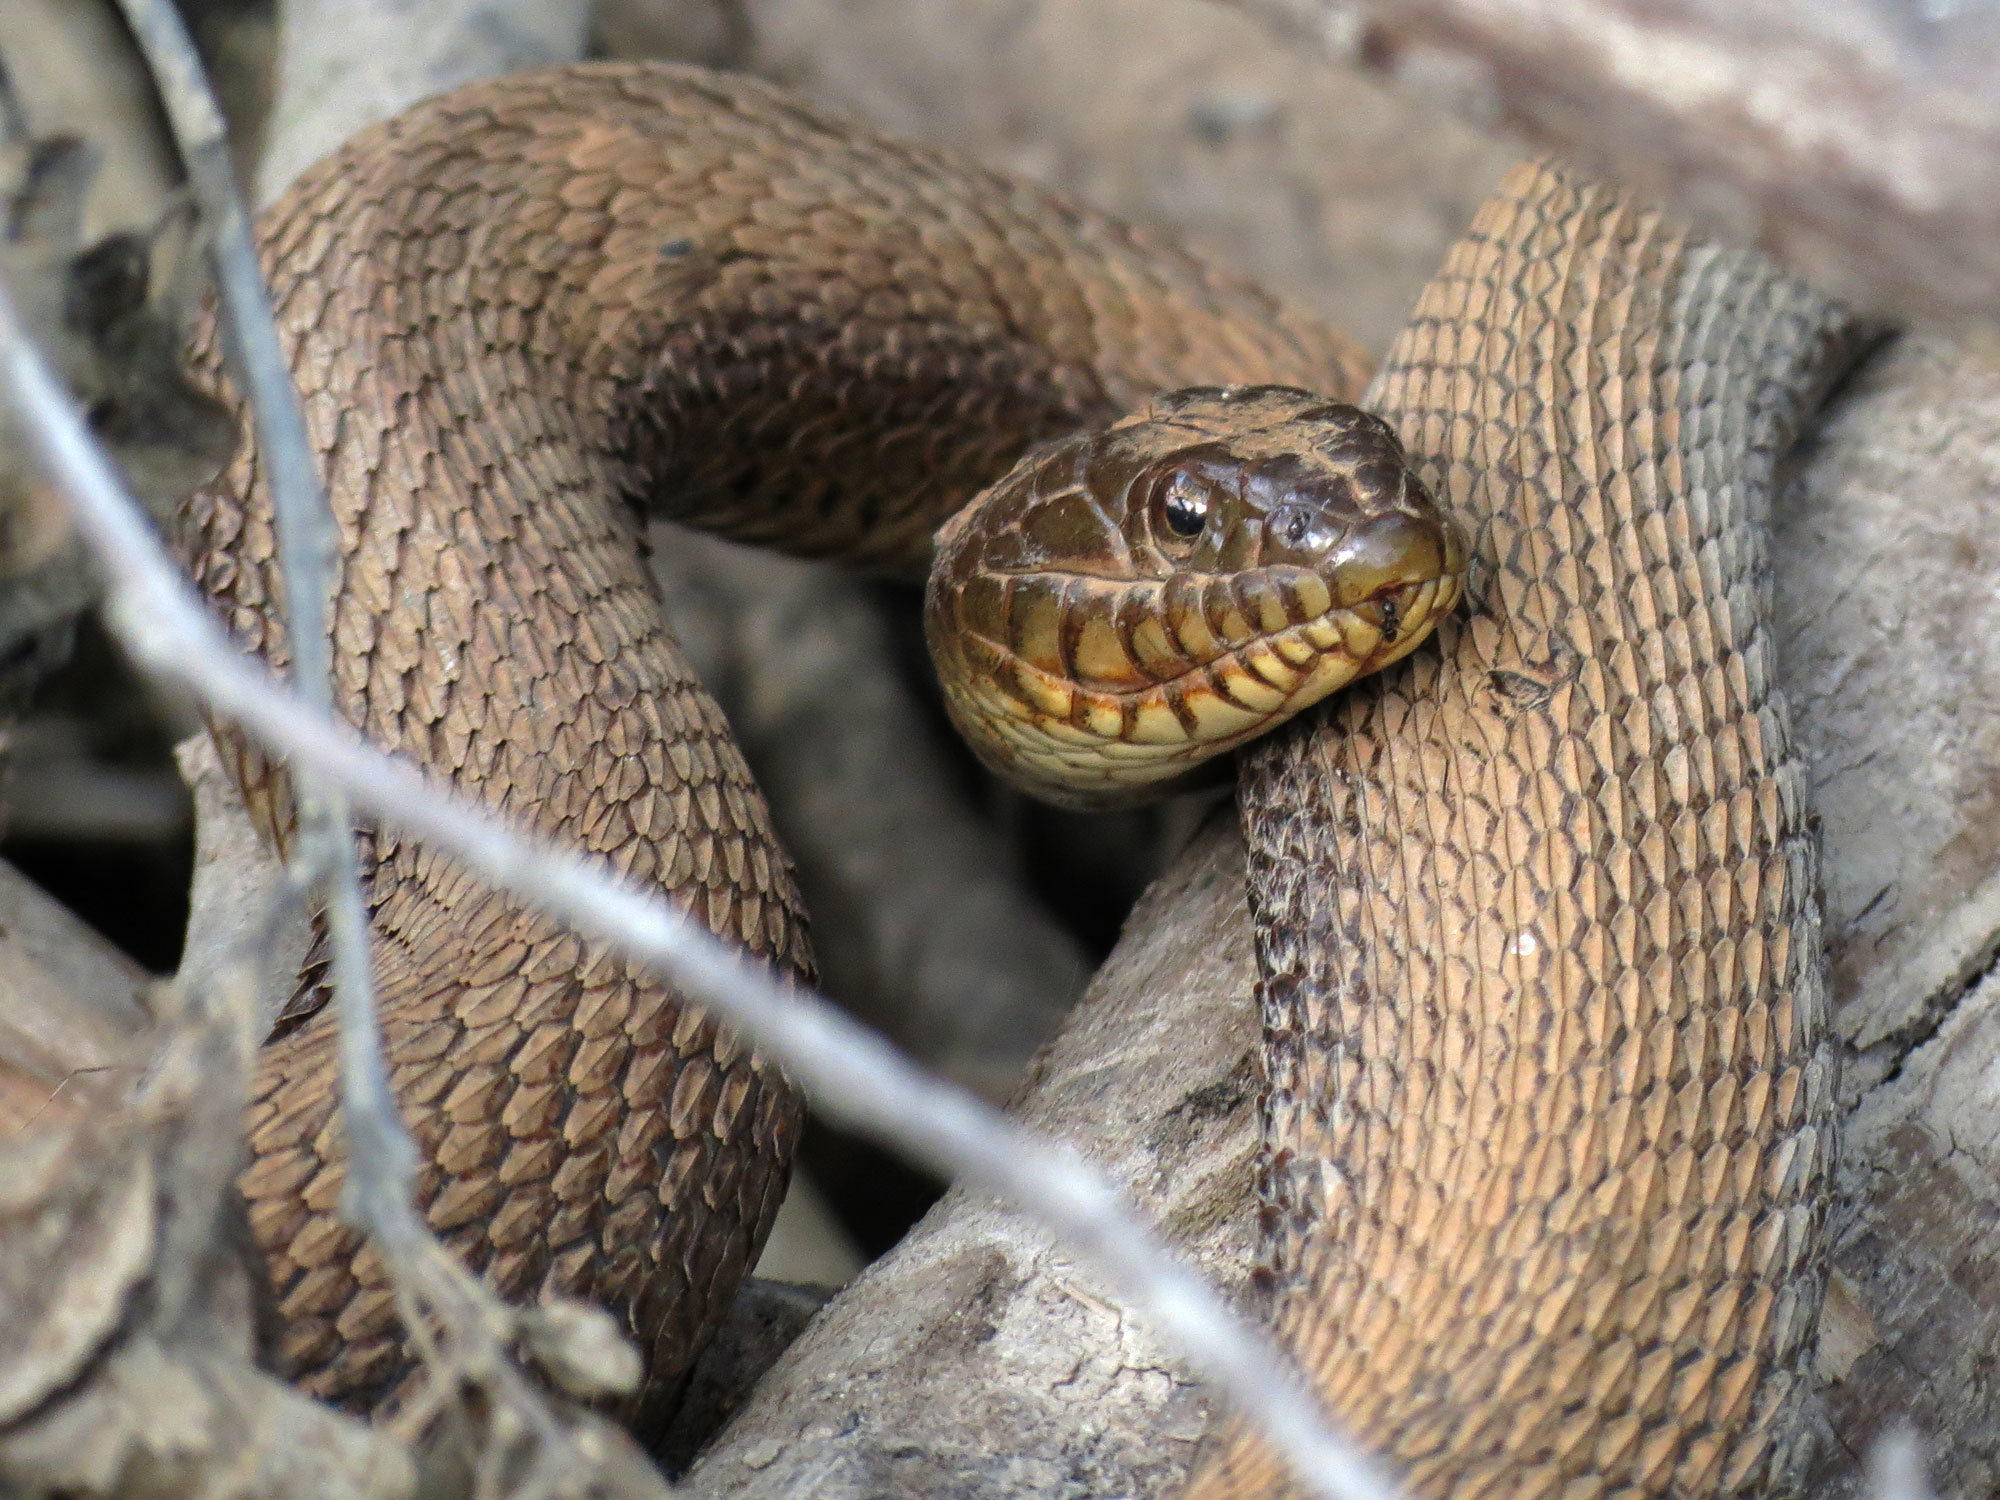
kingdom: Animalia
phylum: Chordata
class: Squamata
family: Colubridae
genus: Nerodia
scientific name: Nerodia sipedon
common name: Northern water snake
